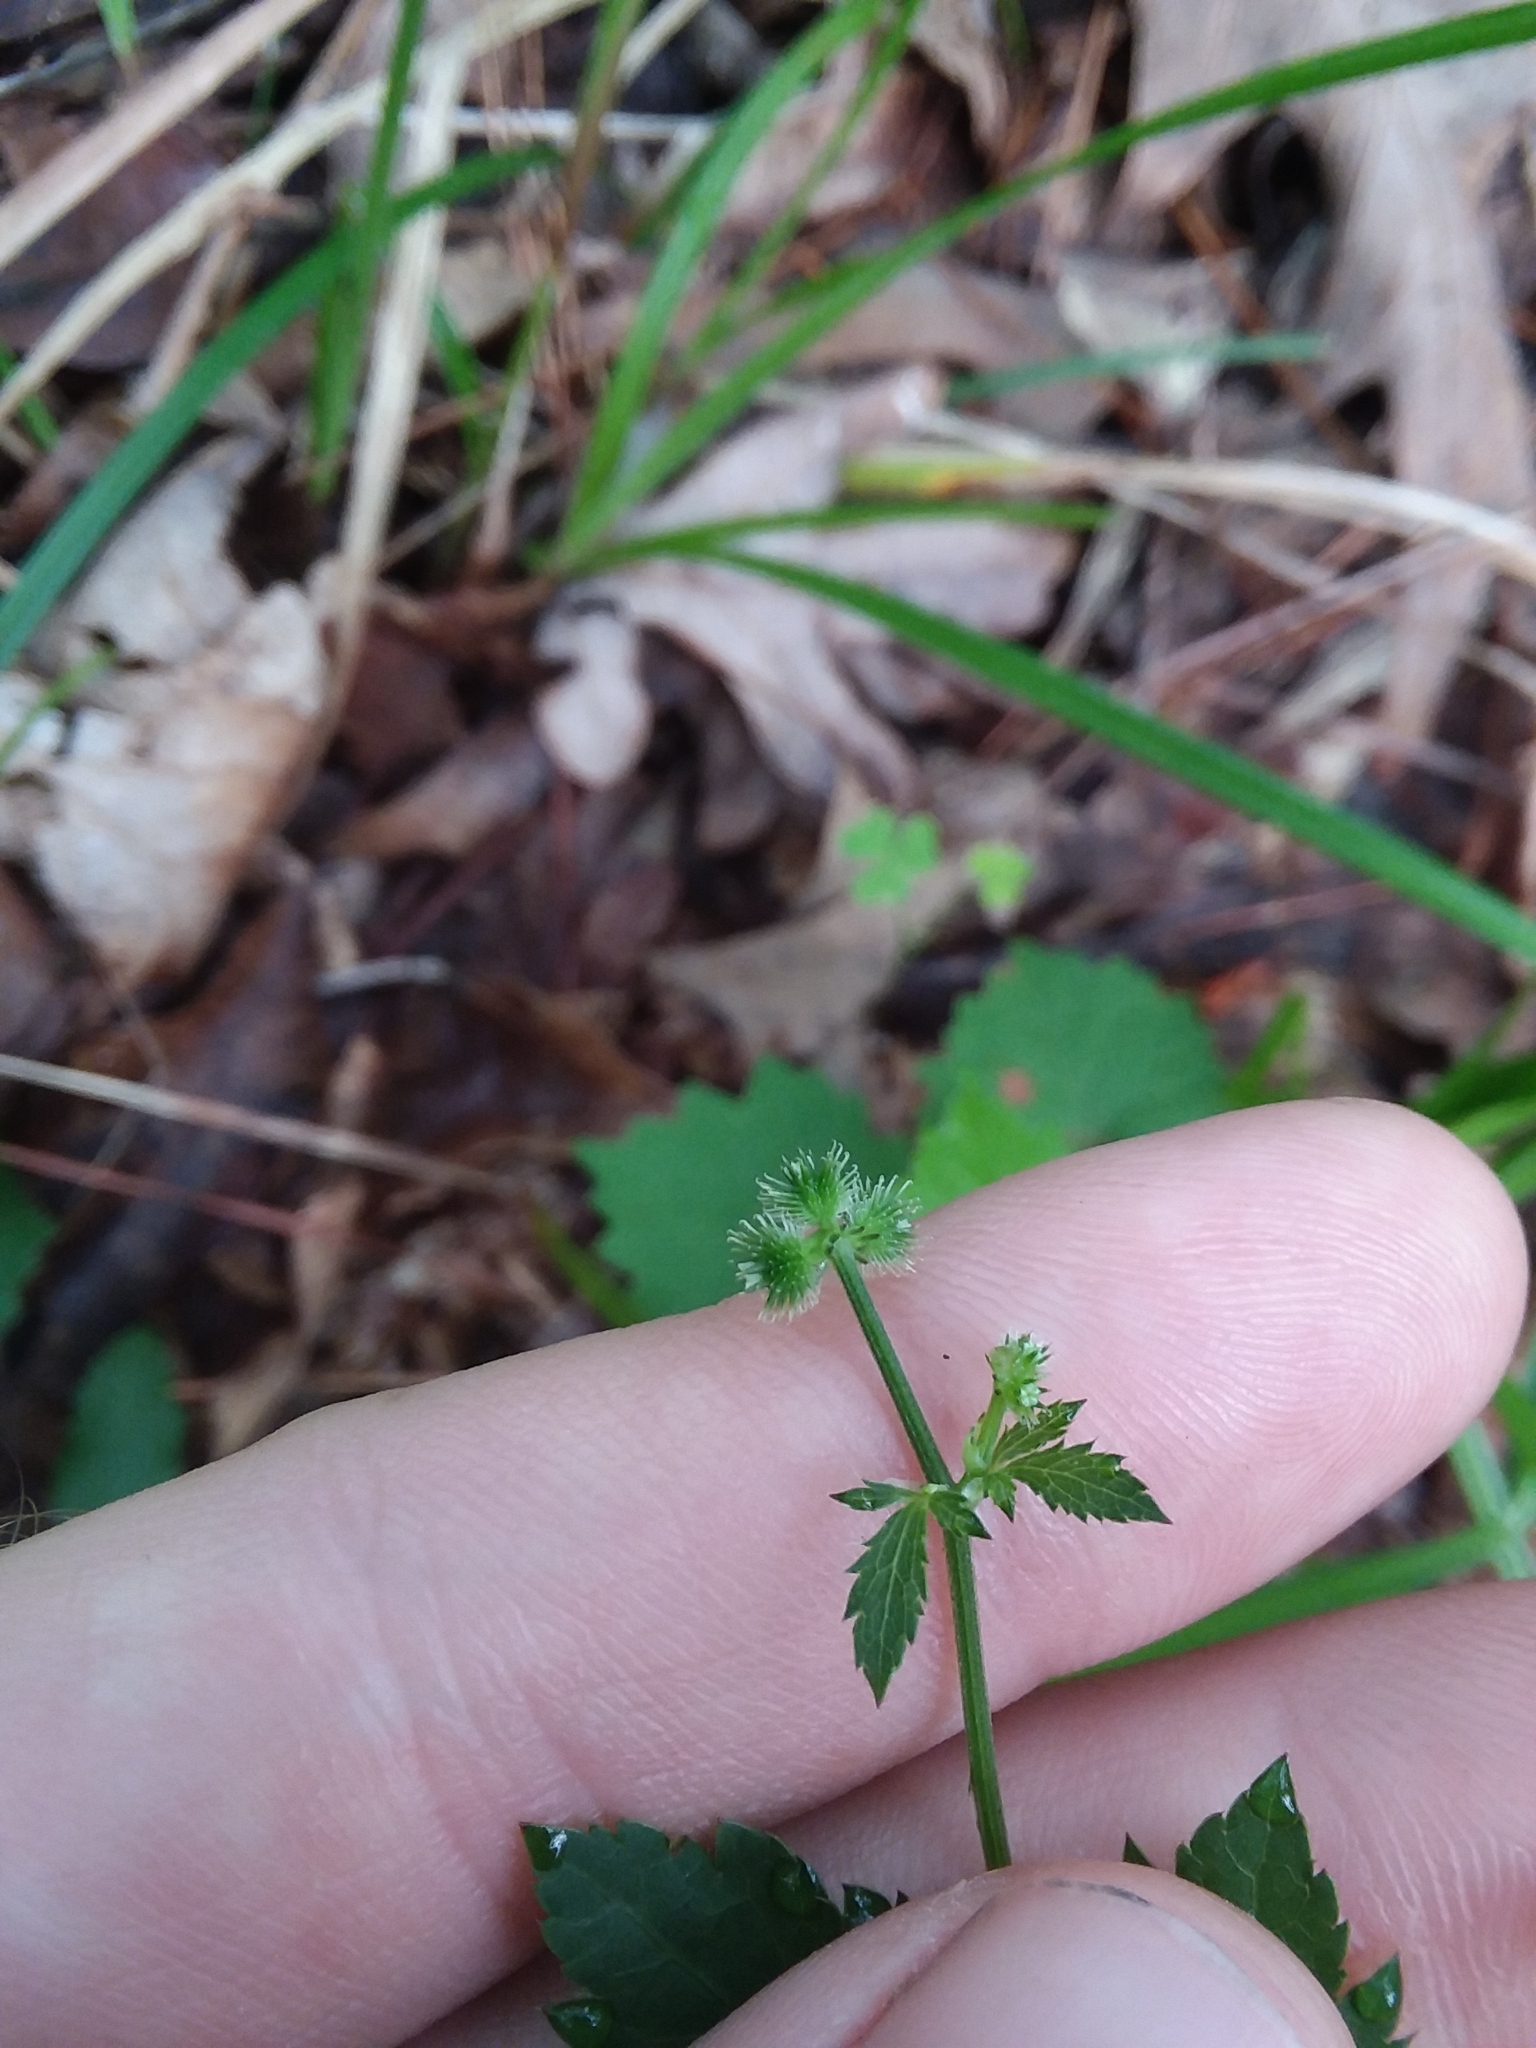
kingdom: Plantae
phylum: Tracheophyta
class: Magnoliopsida
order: Apiales
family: Apiaceae
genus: Sanicula
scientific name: Sanicula canadensis
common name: Canada sanicle
